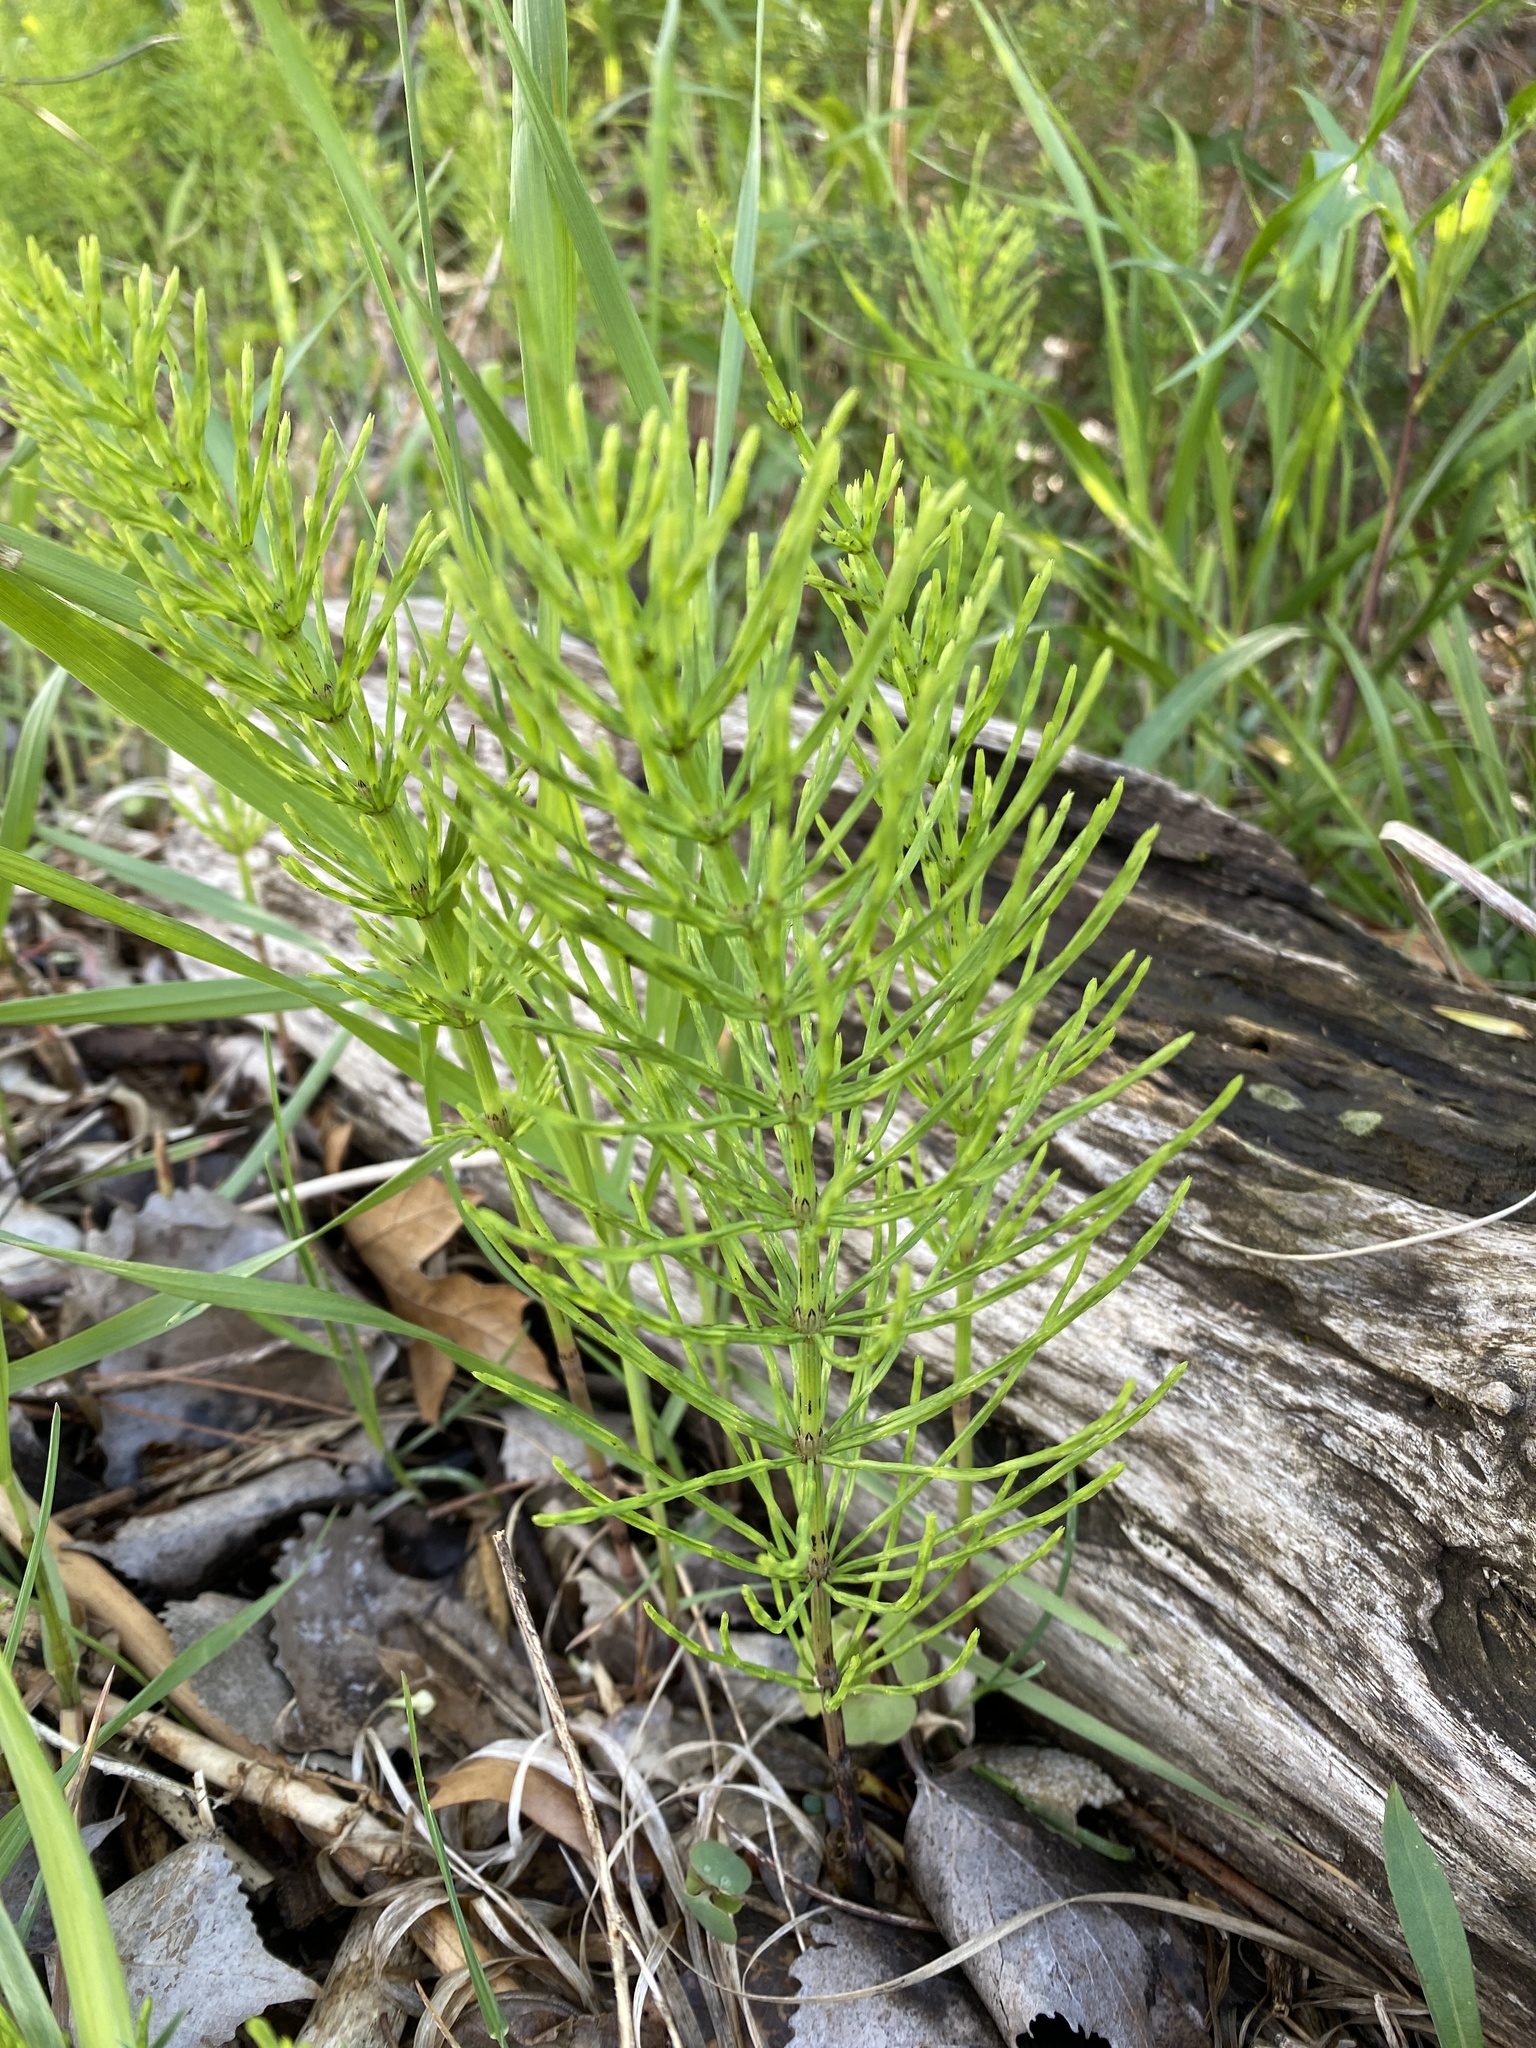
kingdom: Plantae
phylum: Tracheophyta
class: Polypodiopsida
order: Equisetales
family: Equisetaceae
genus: Equisetum
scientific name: Equisetum arvense
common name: Field horsetail
